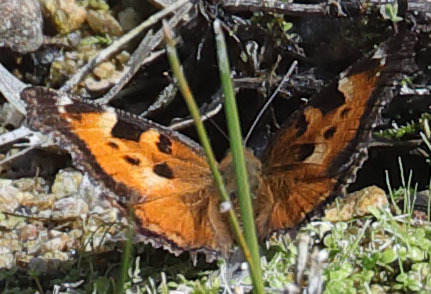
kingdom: Animalia
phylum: Arthropoda
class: Insecta
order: Lepidoptera
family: Nymphalidae
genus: Nymphalis
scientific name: Nymphalis californica
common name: California tortoiseshell
